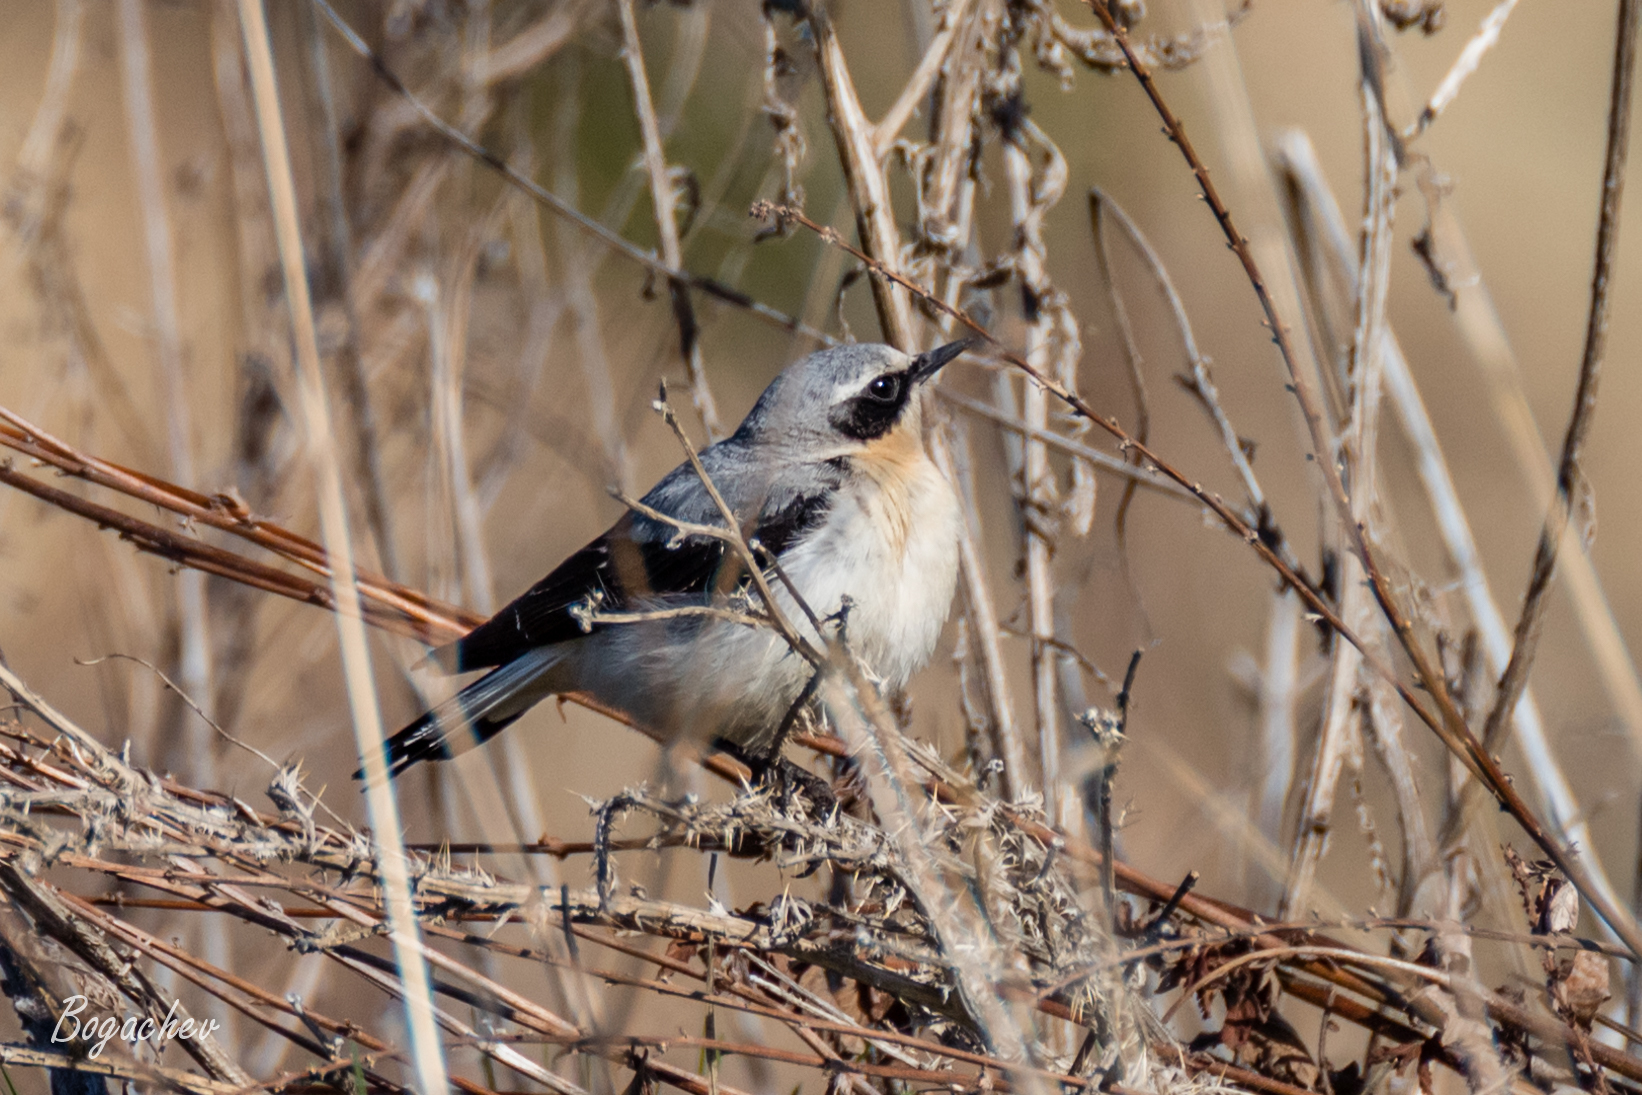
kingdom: Animalia
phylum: Chordata
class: Aves
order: Passeriformes
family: Muscicapidae
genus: Oenanthe
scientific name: Oenanthe oenanthe
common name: Northern wheatear
